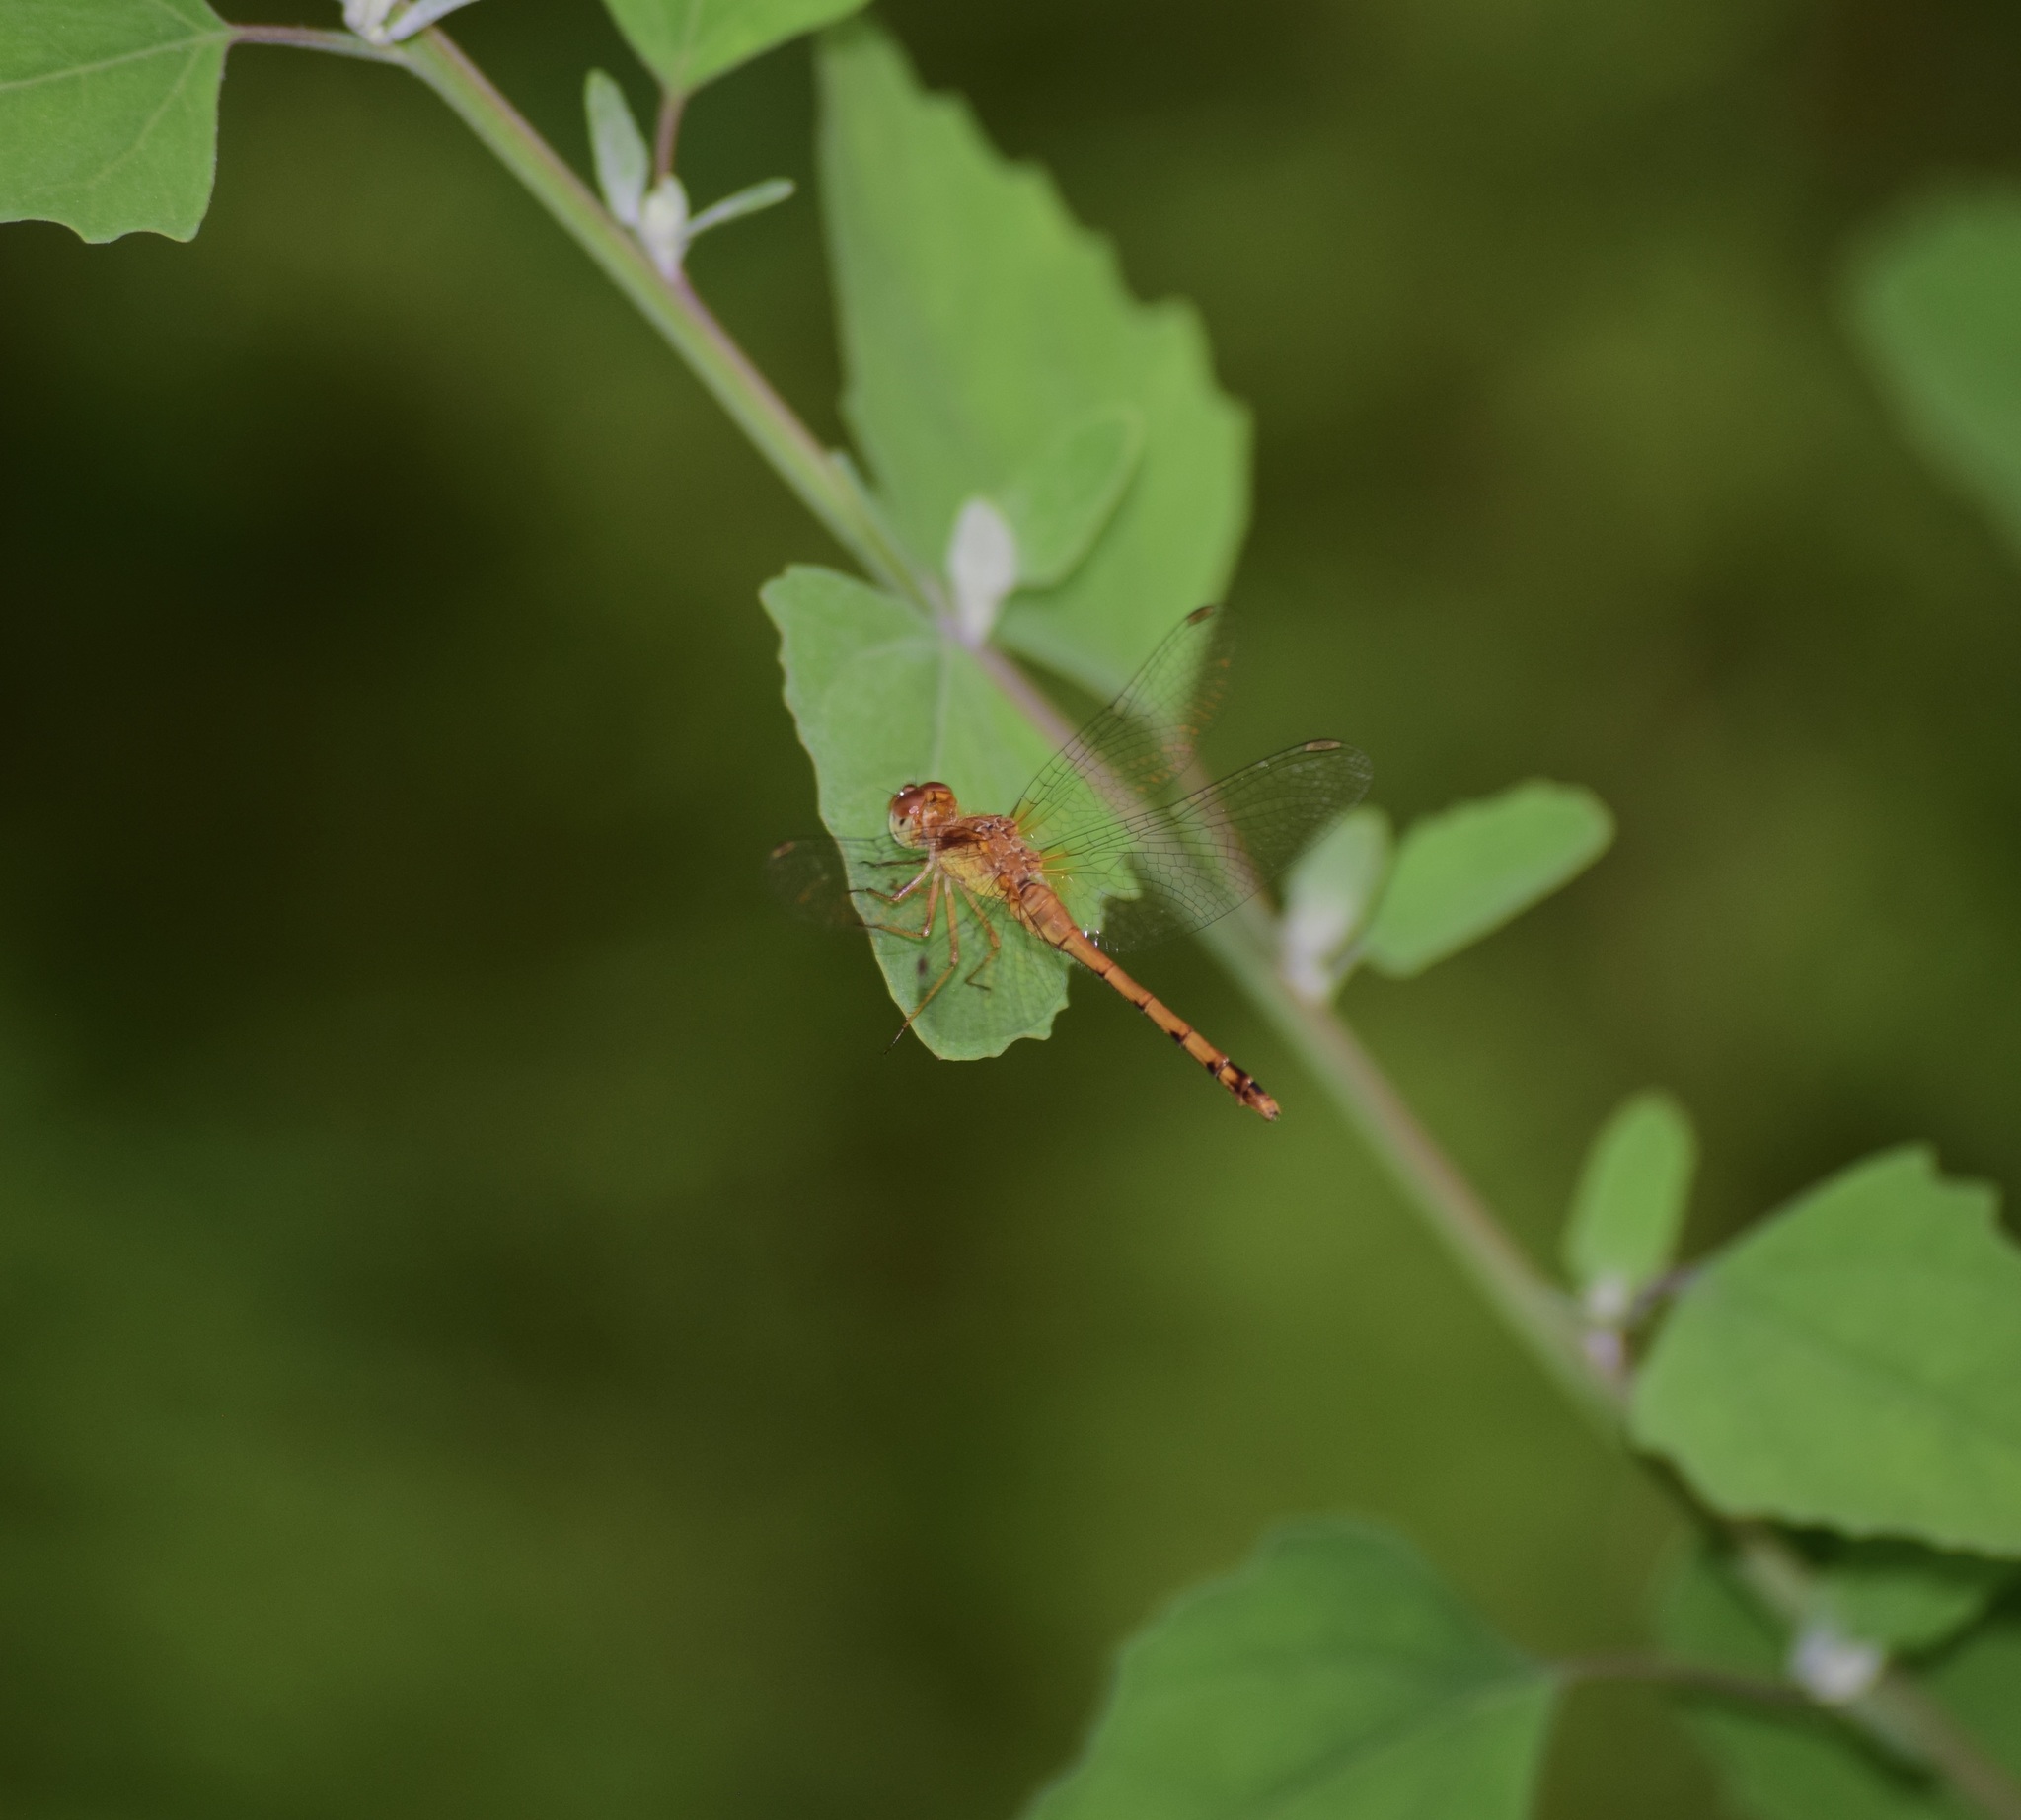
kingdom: Animalia
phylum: Arthropoda
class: Insecta
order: Odonata
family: Libellulidae
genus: Sympetrum
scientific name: Sympetrum vicinum
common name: Autumn meadowhawk
